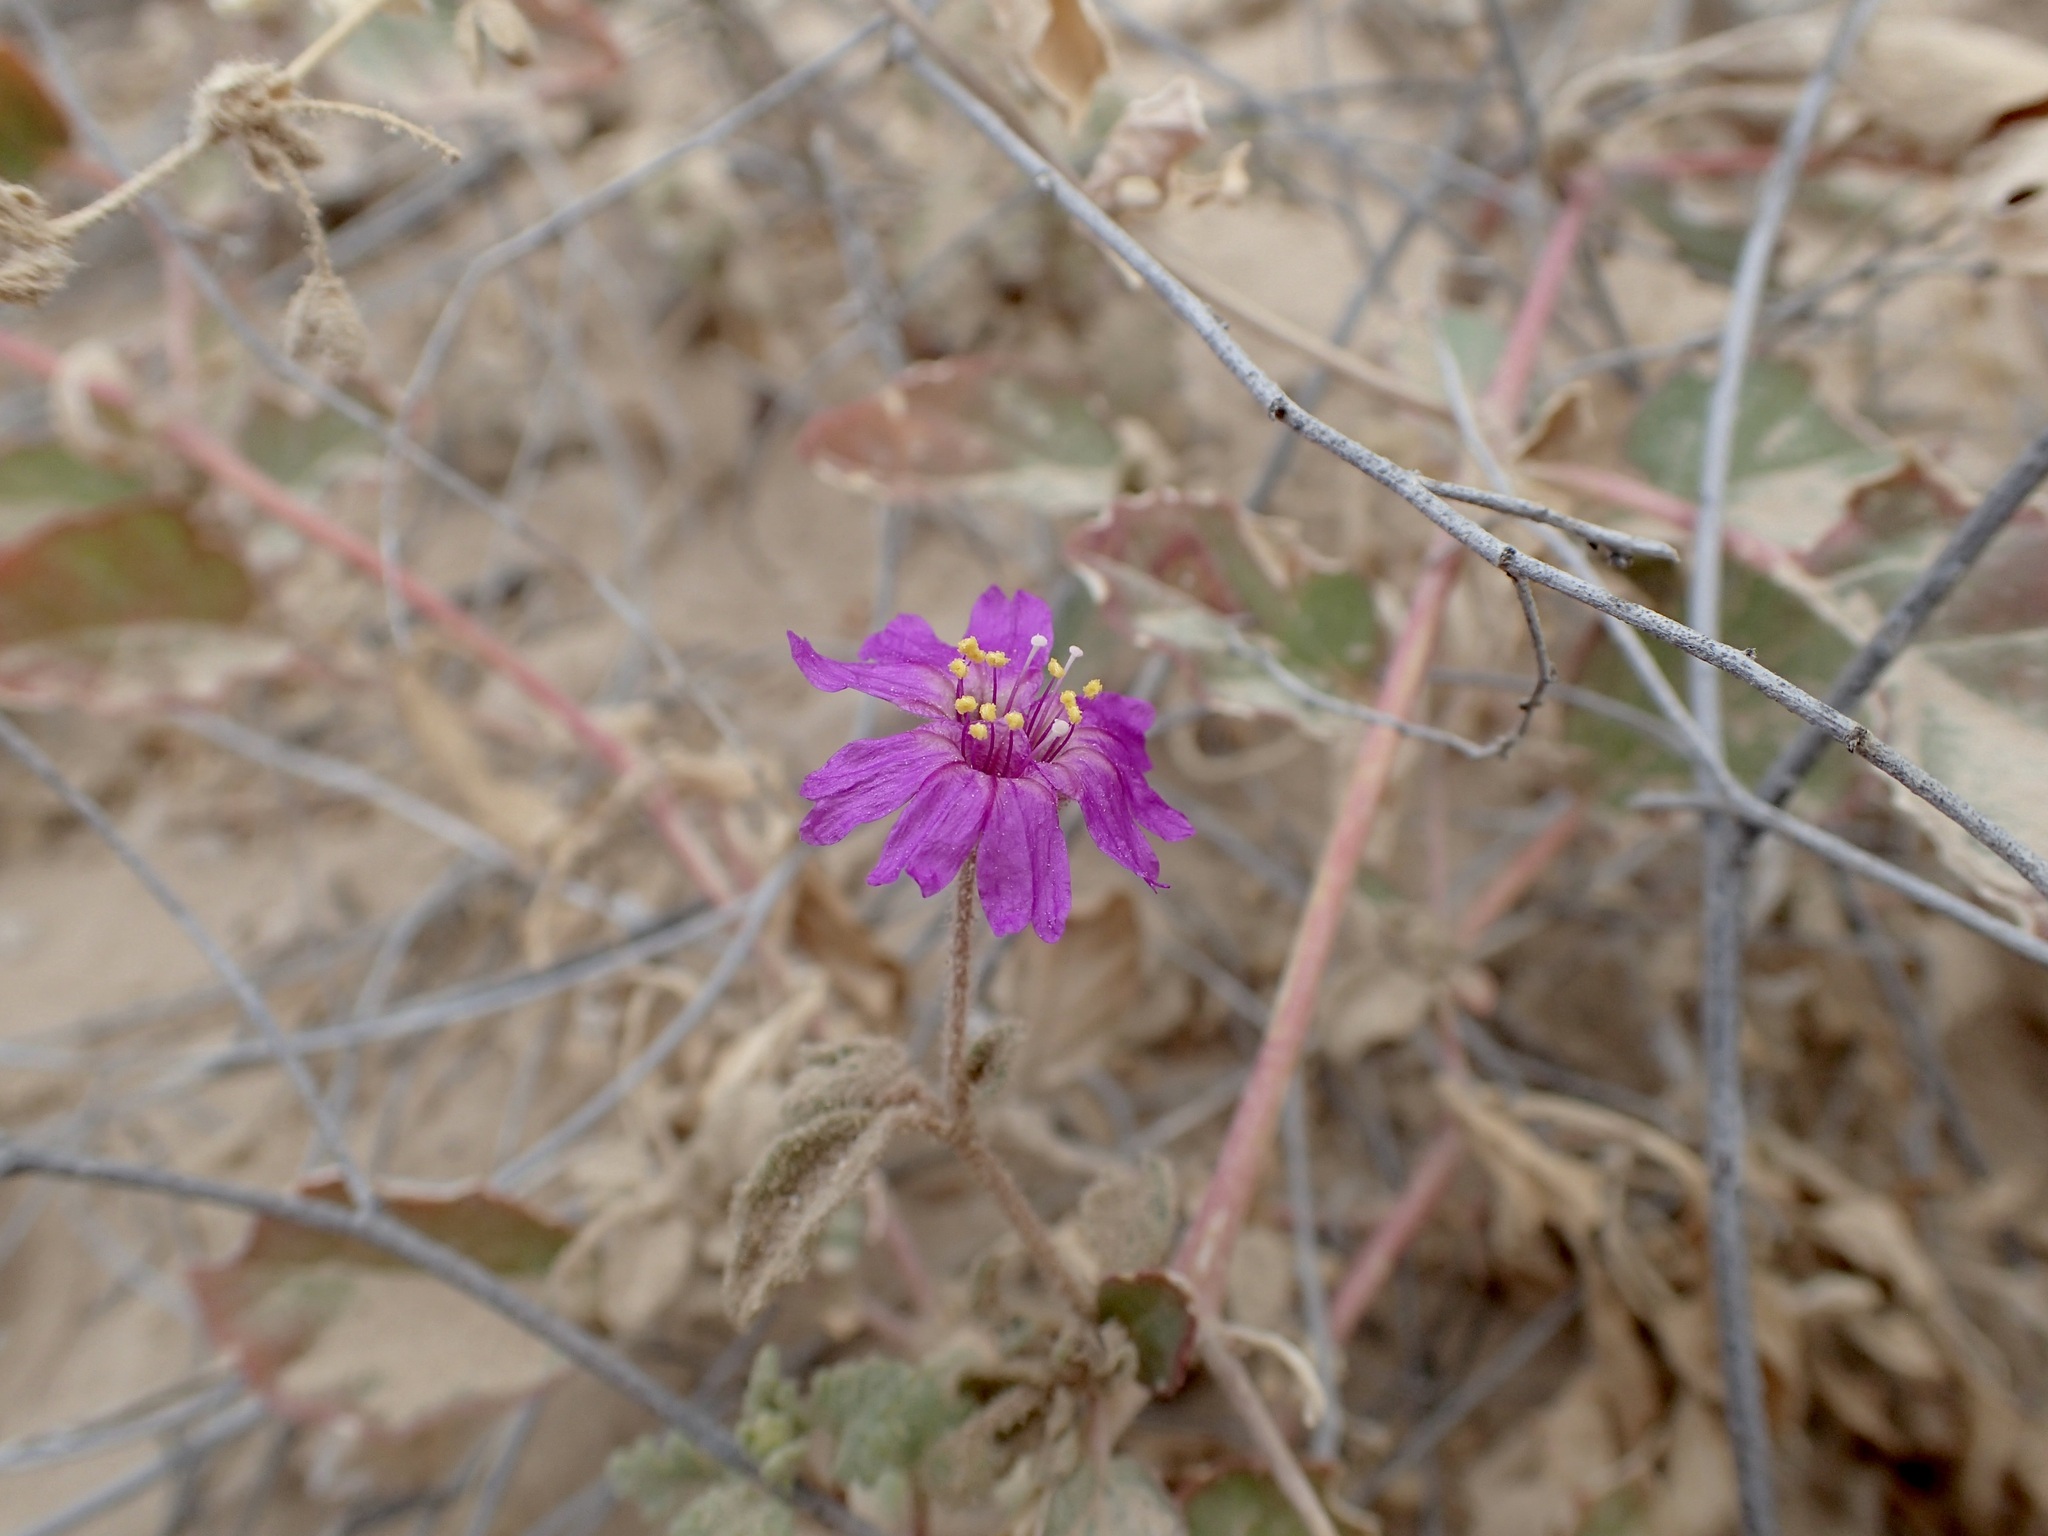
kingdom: Plantae
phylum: Tracheophyta
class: Magnoliopsida
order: Caryophyllales
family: Nyctaginaceae
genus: Allionia
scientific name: Allionia incarnata
